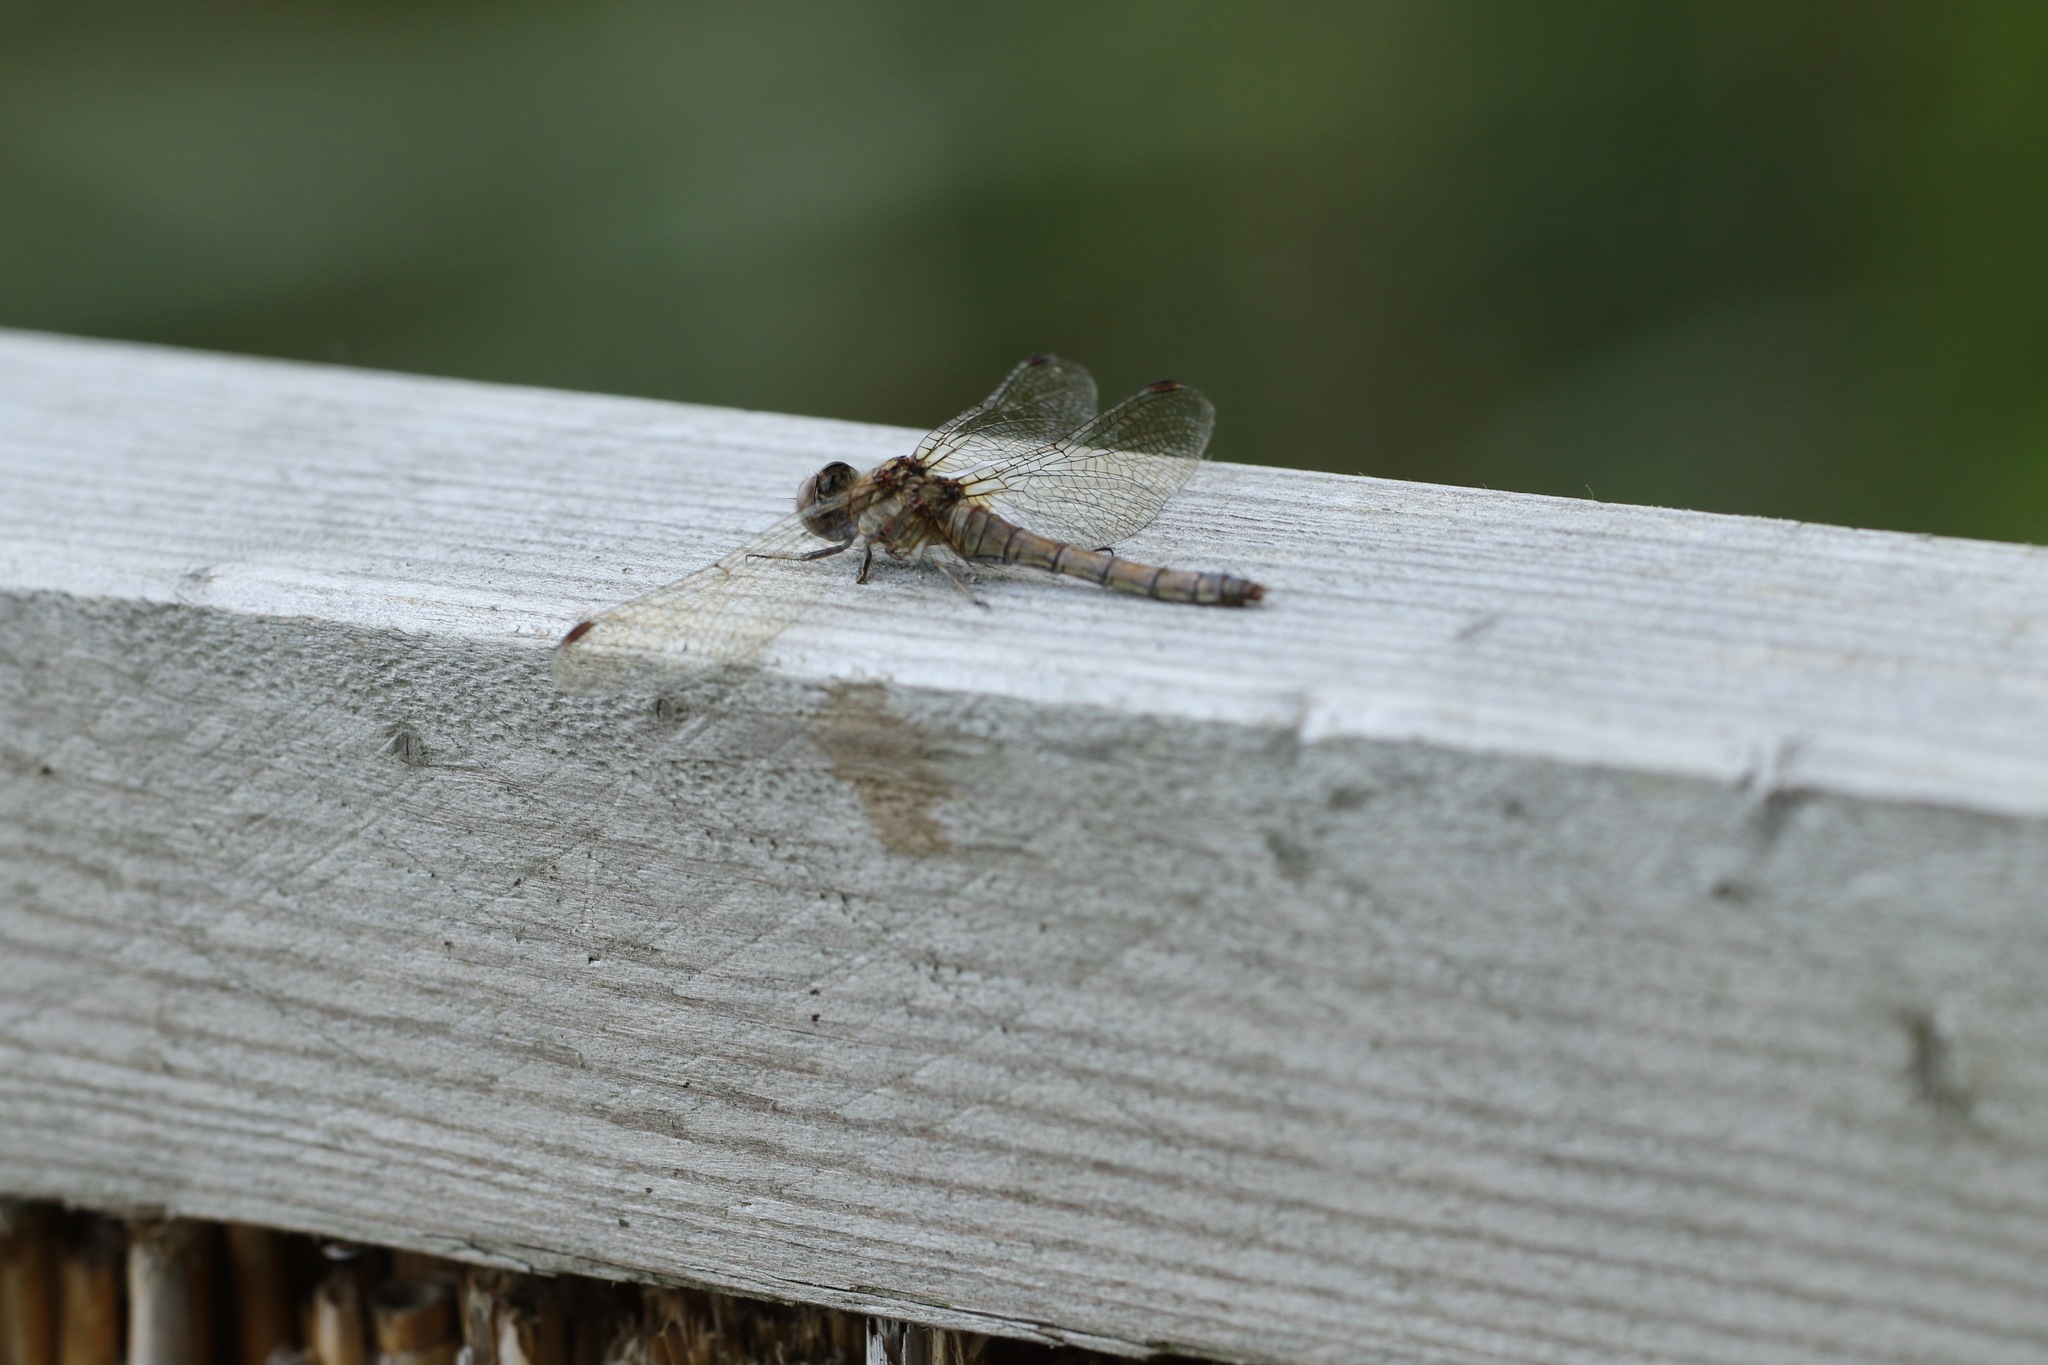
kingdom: Animalia
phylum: Arthropoda
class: Insecta
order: Odonata
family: Libellulidae
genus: Sympetrum
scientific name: Sympetrum striolatum
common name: Common darter
